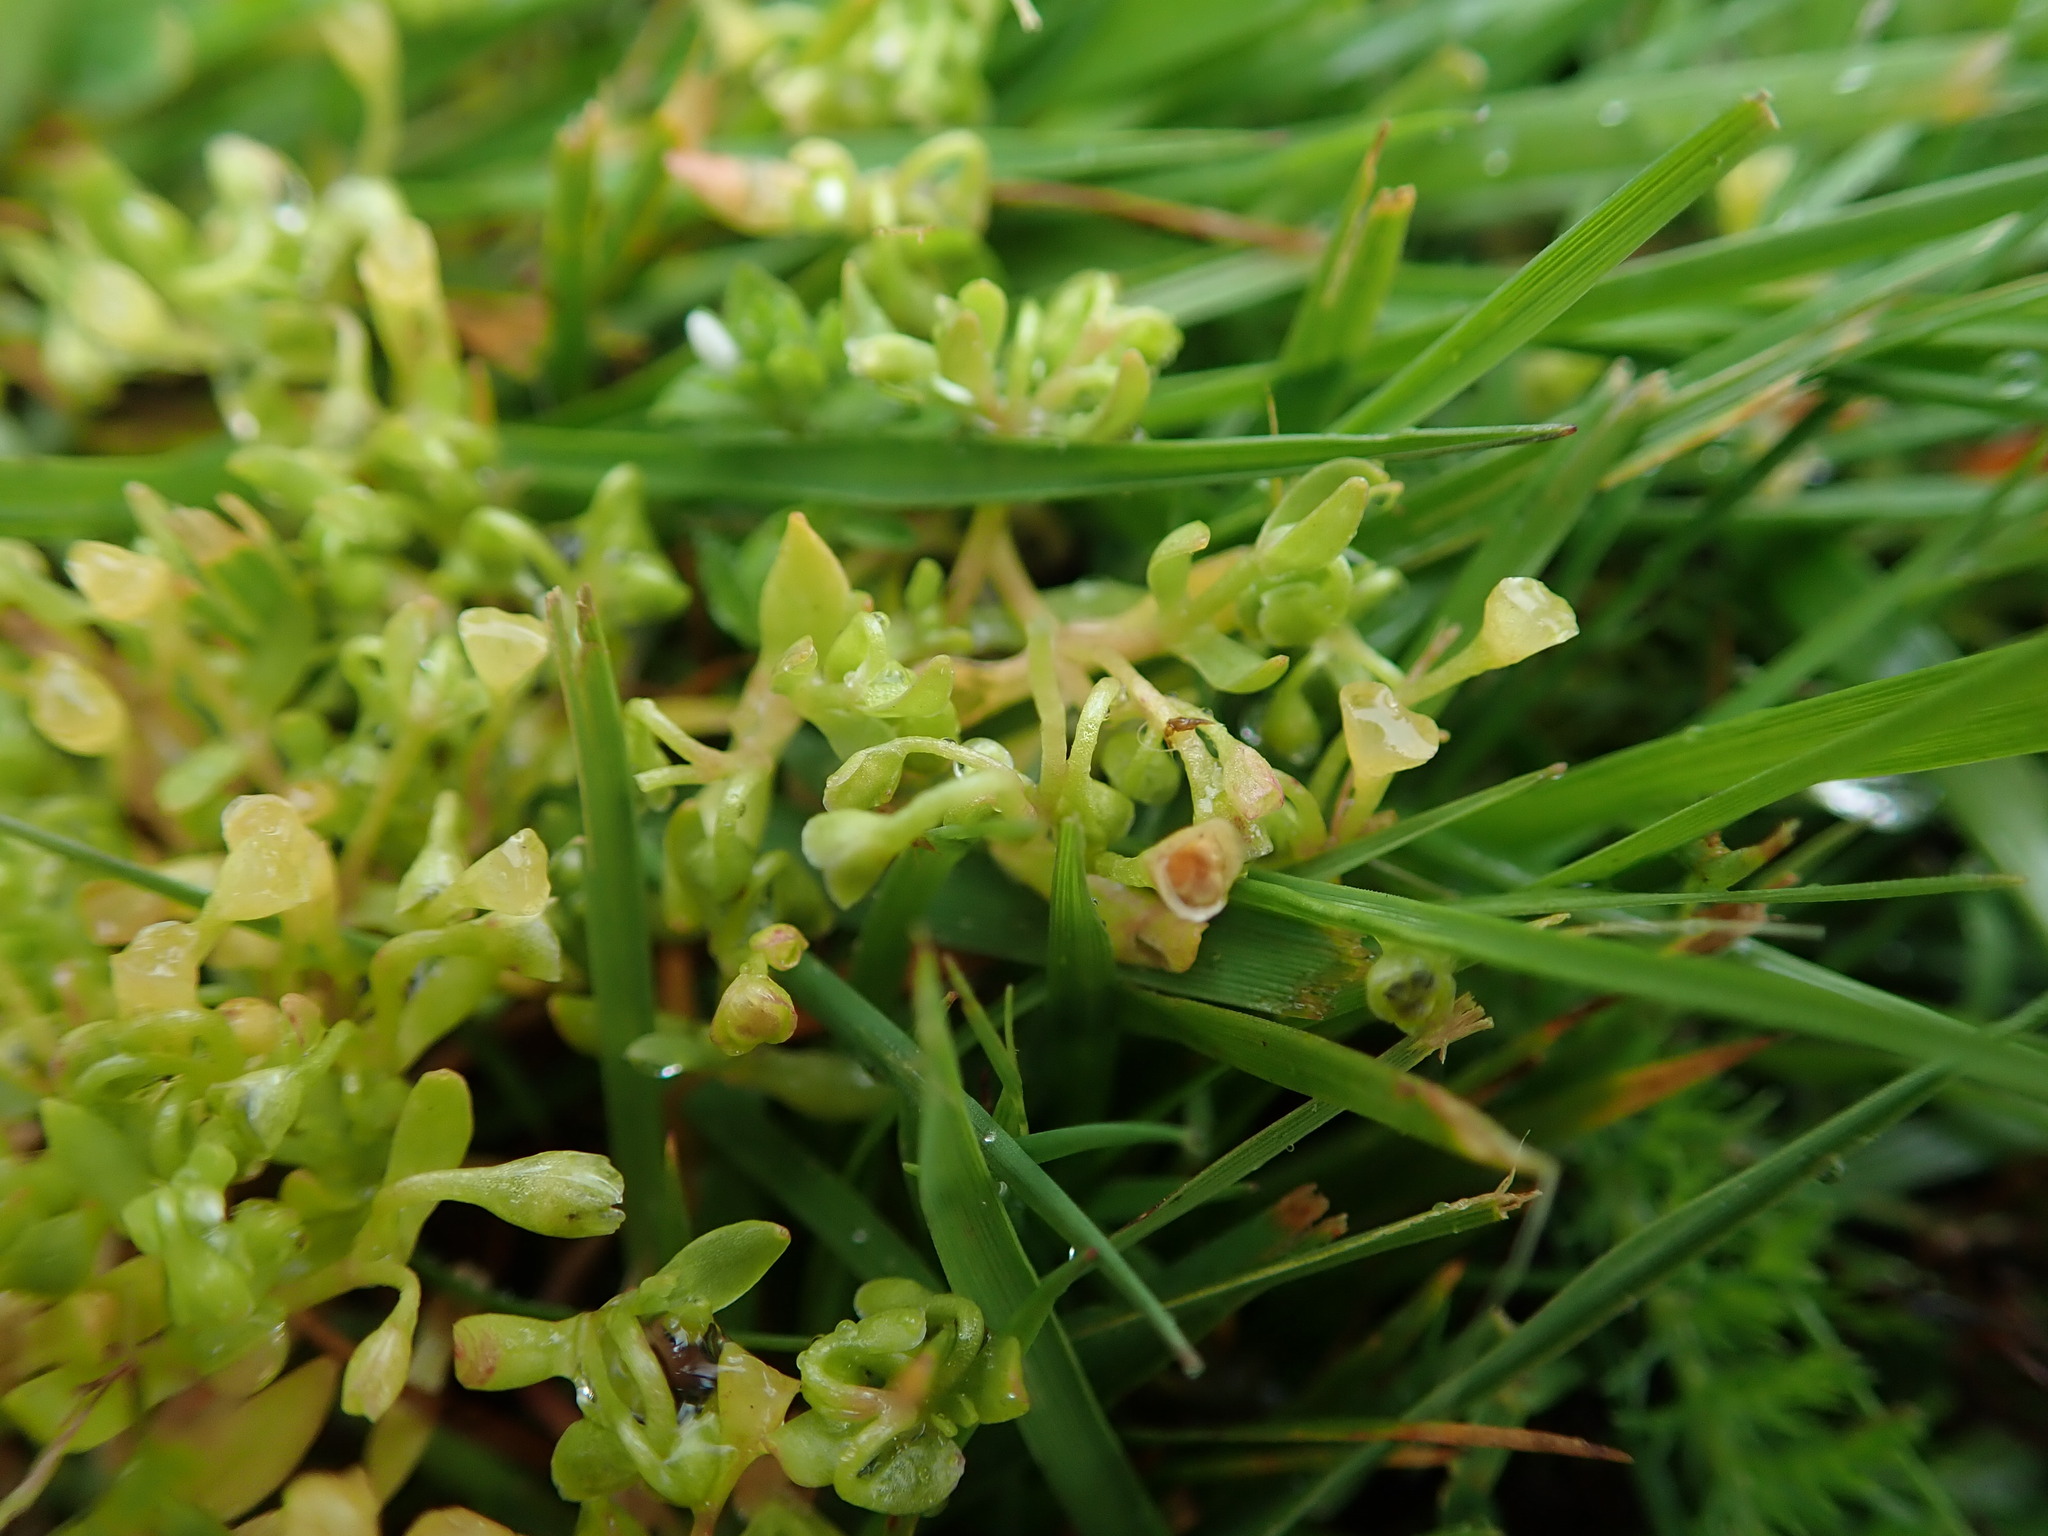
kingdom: Plantae
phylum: Tracheophyta
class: Magnoliopsida
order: Caryophyllales
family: Montiaceae
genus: Montia
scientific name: Montia fontana
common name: Blinks
